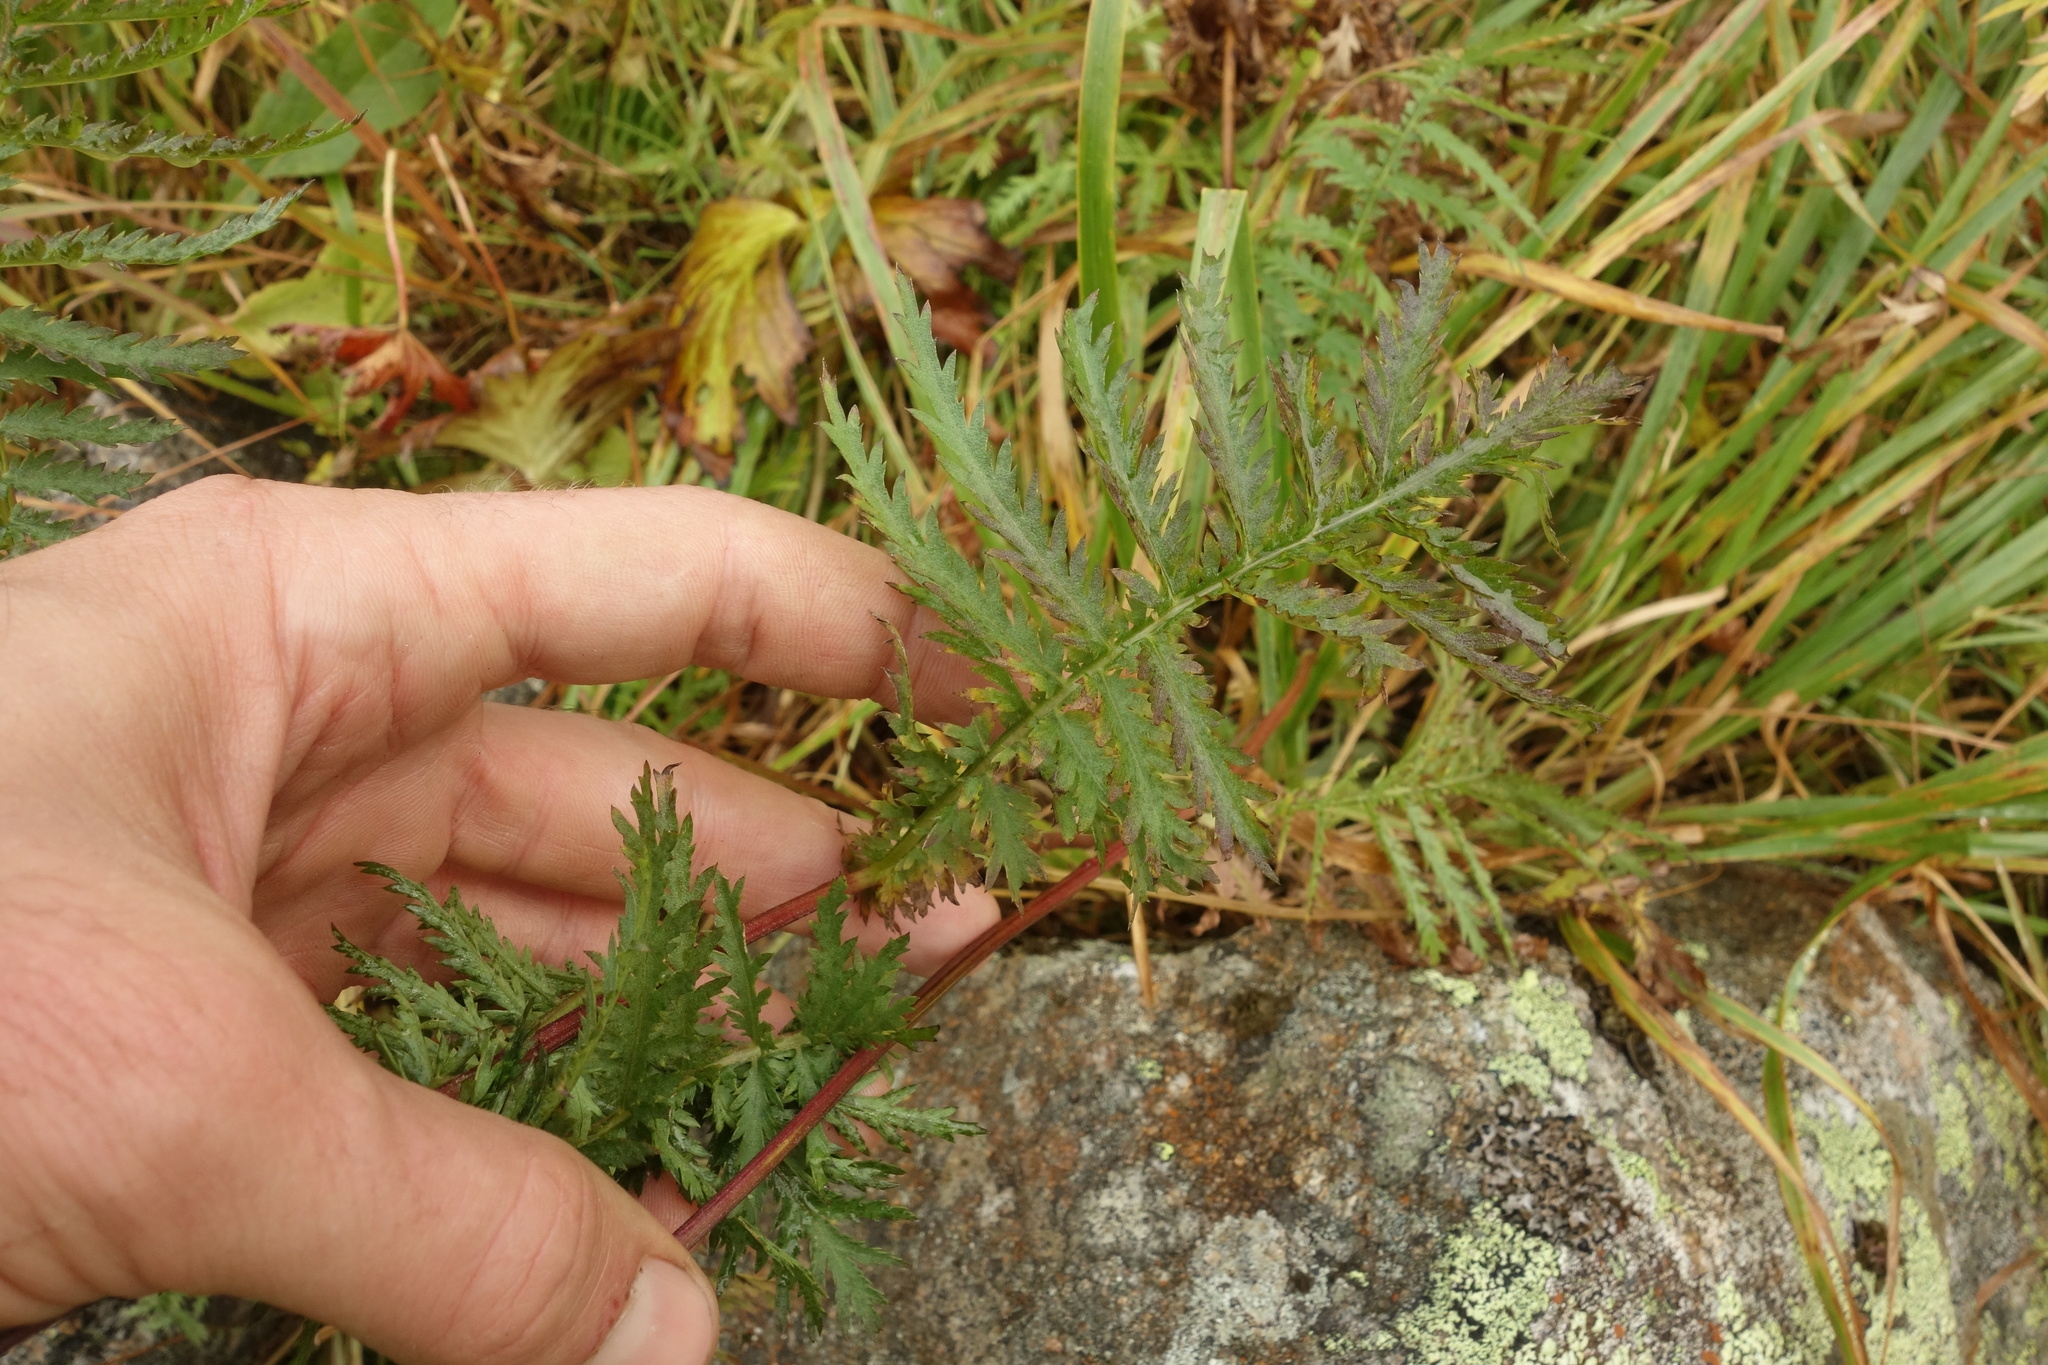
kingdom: Plantae
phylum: Tracheophyta
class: Magnoliopsida
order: Asterales
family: Asteraceae
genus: Tanacetum
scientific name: Tanacetum vulgare
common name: Common tansy
